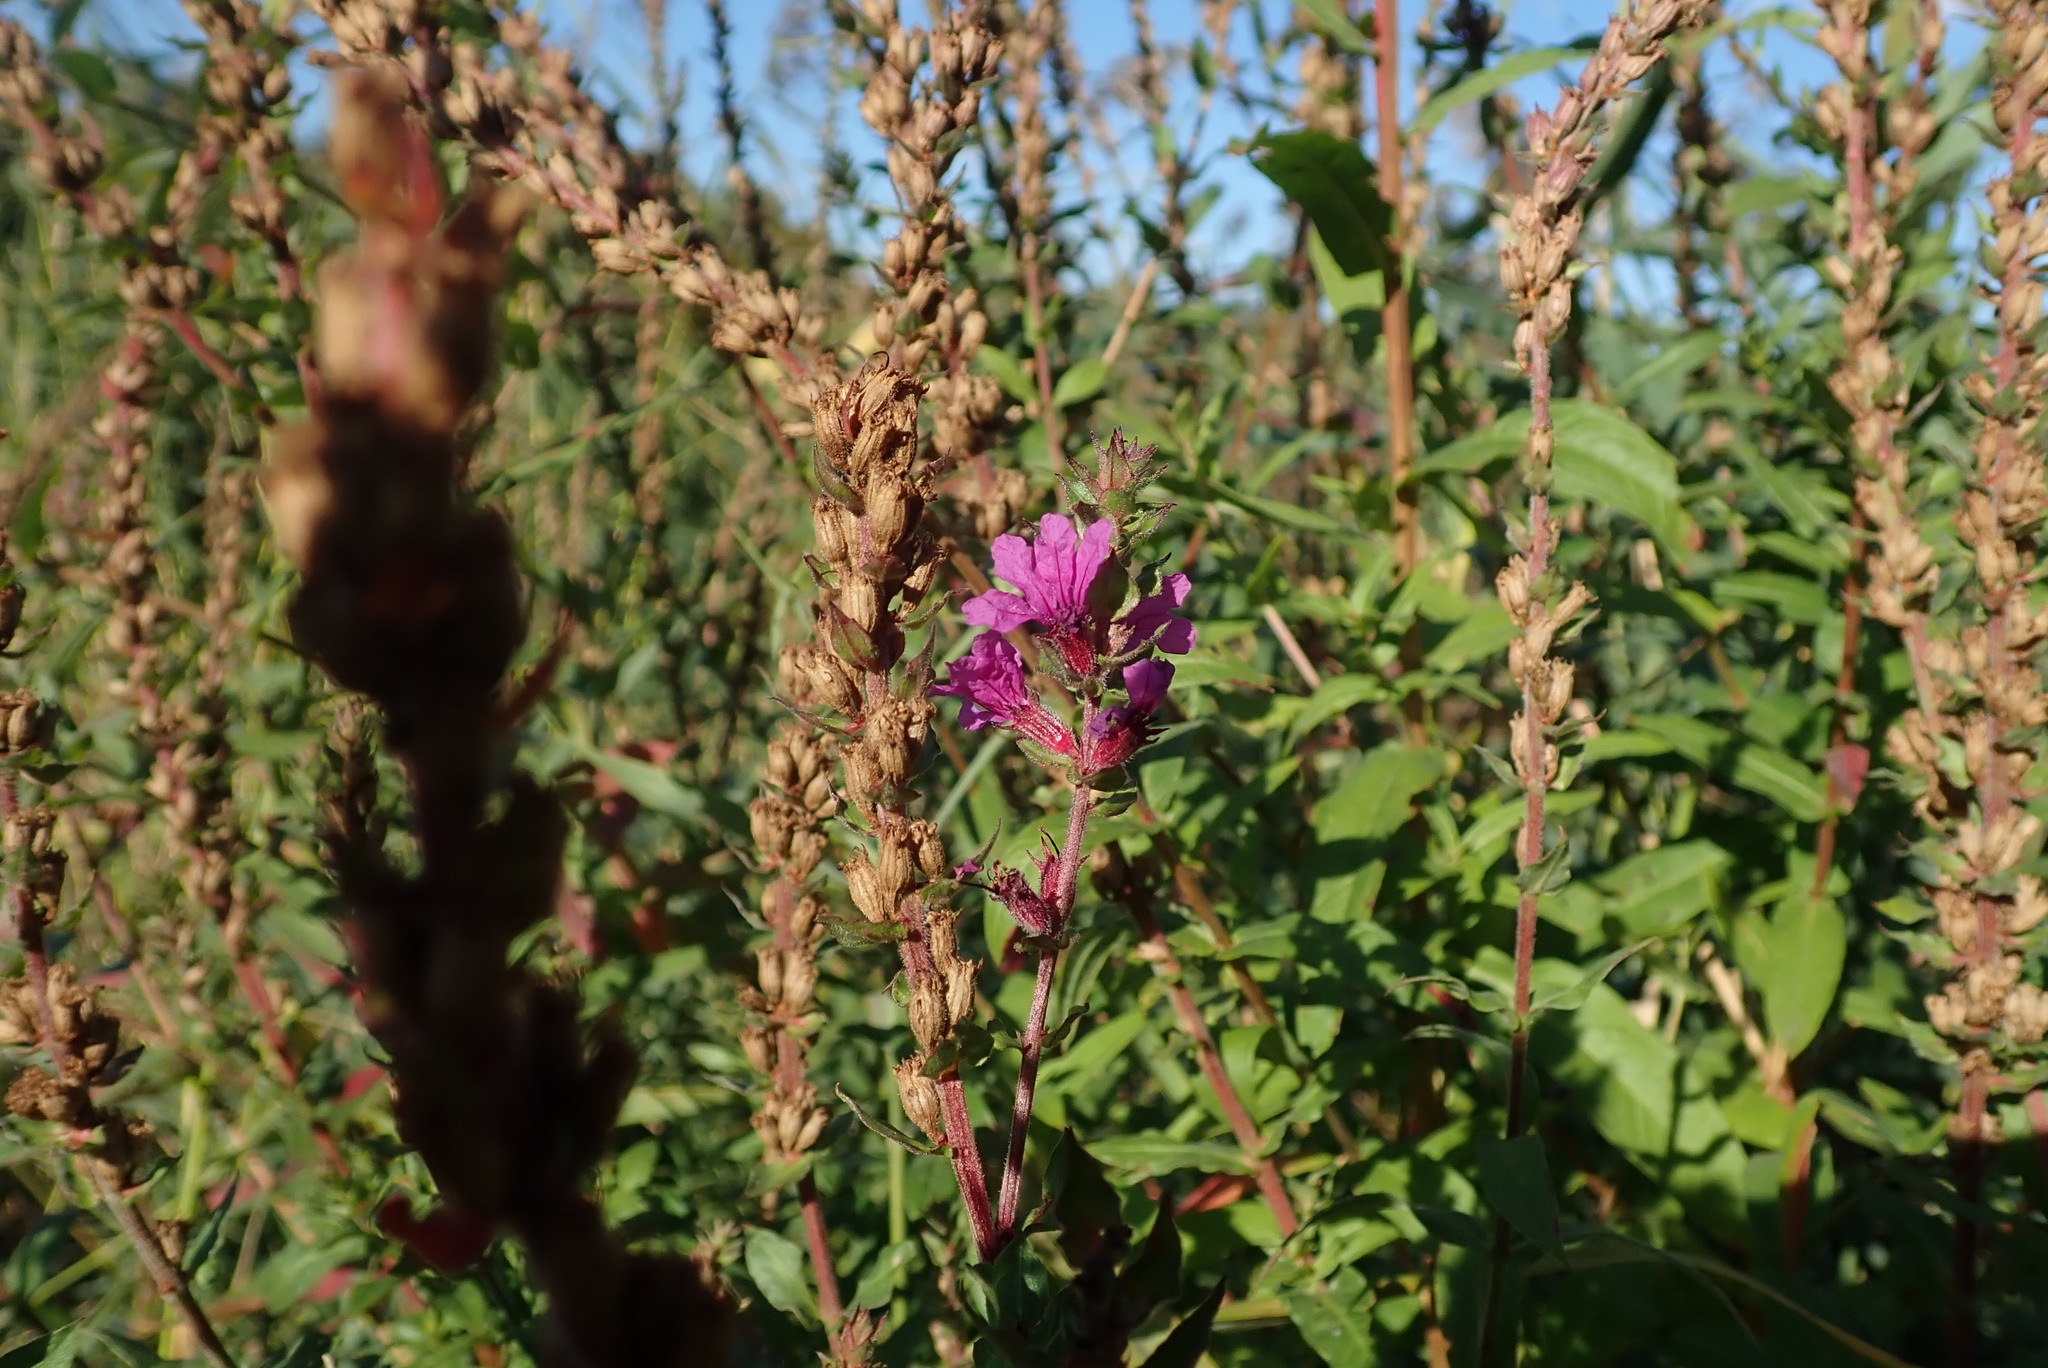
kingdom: Plantae
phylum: Tracheophyta
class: Magnoliopsida
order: Myrtales
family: Lythraceae
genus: Lythrum
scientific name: Lythrum salicaria
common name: Purple loosestrife
